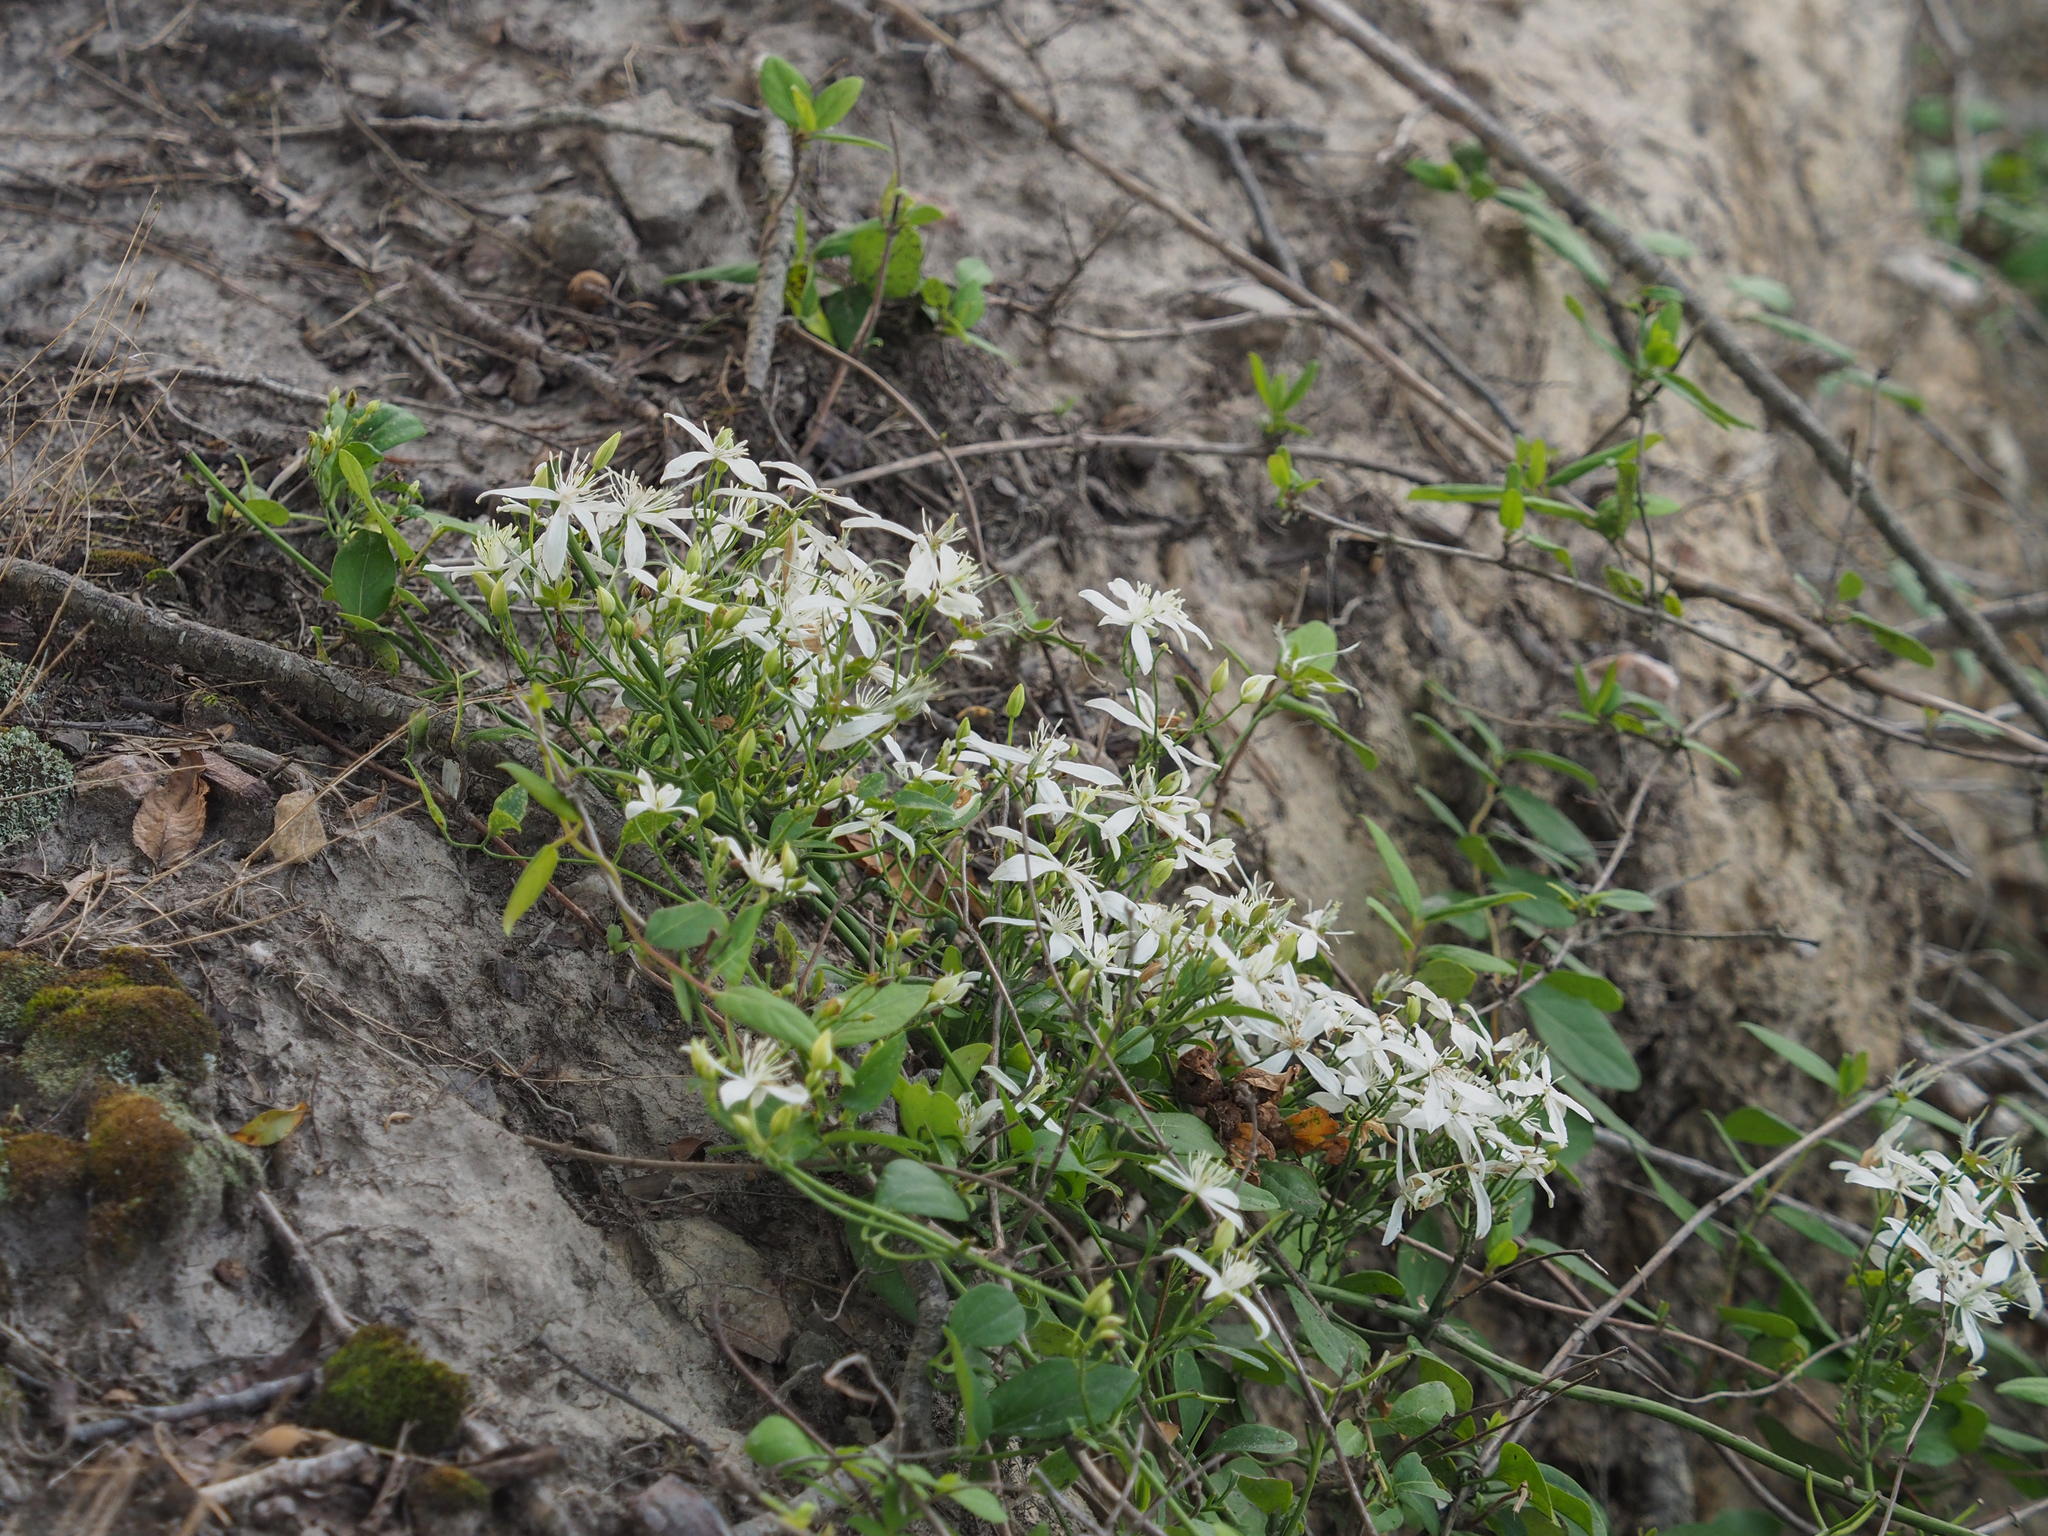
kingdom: Plantae
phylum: Tracheophyta
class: Magnoliopsida
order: Ranunculales
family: Ranunculaceae
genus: Clematis
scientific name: Clematis terniflora
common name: Sweet autumn clematis
